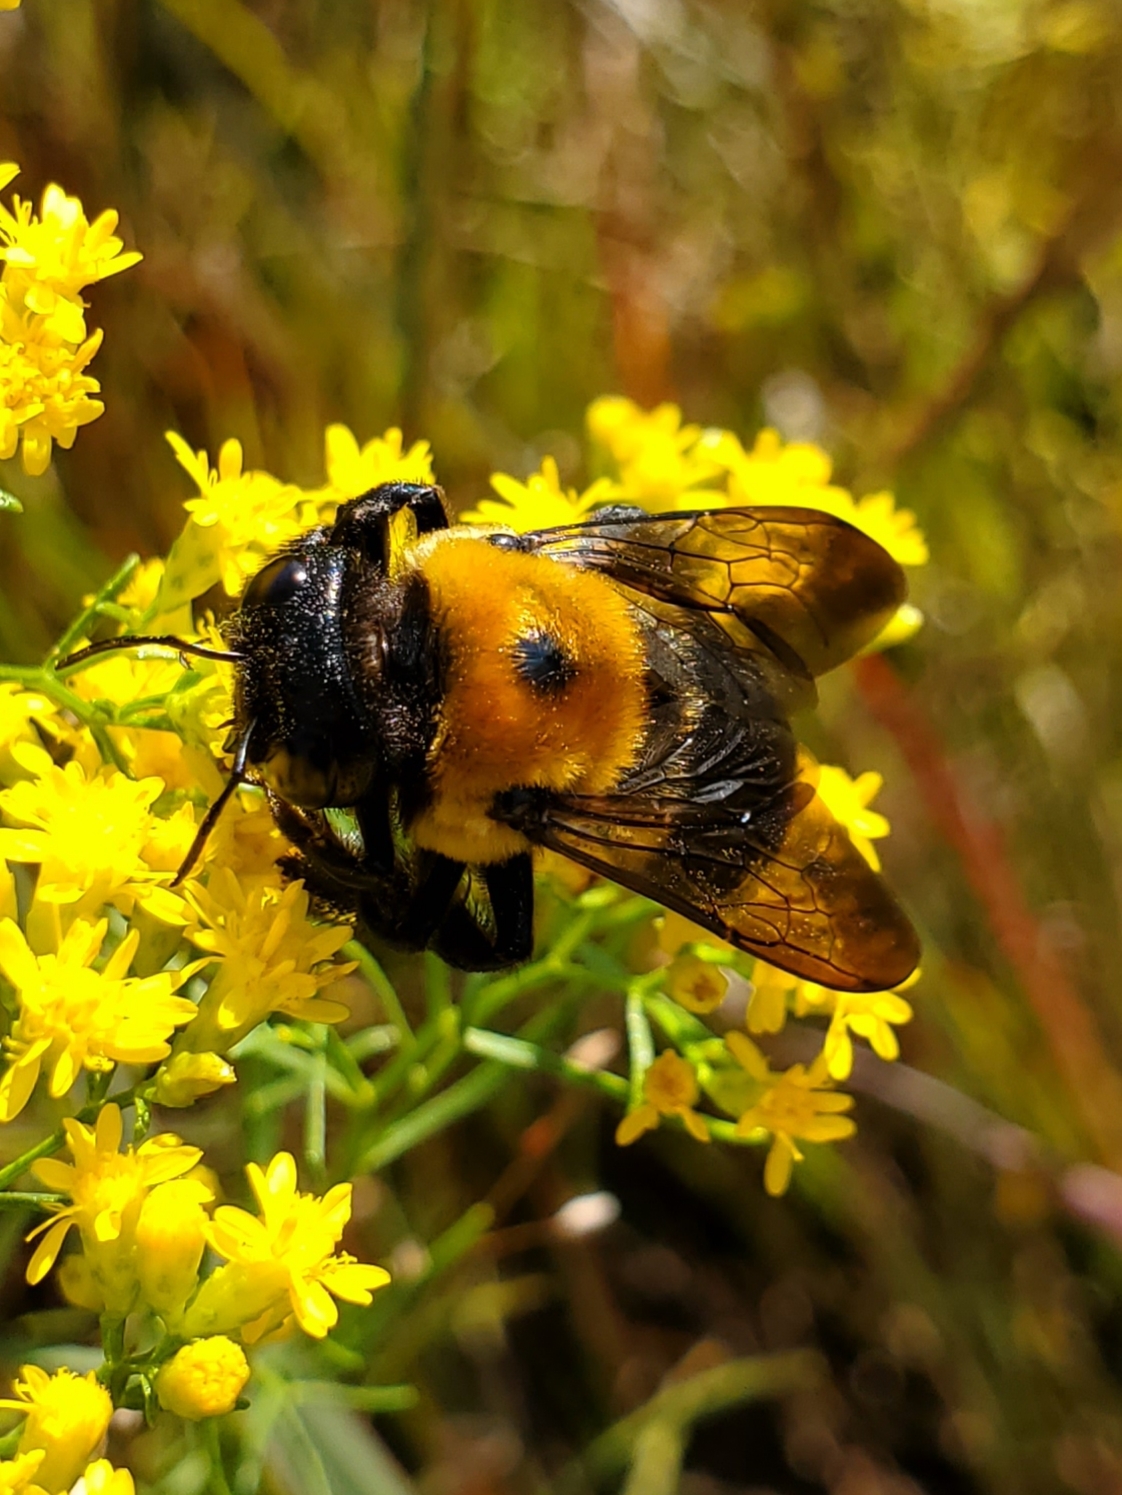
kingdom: Animalia
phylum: Arthropoda
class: Insecta
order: Hymenoptera
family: Apidae
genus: Xylocopa
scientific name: Xylocopa virginica
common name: Carpenter bee
